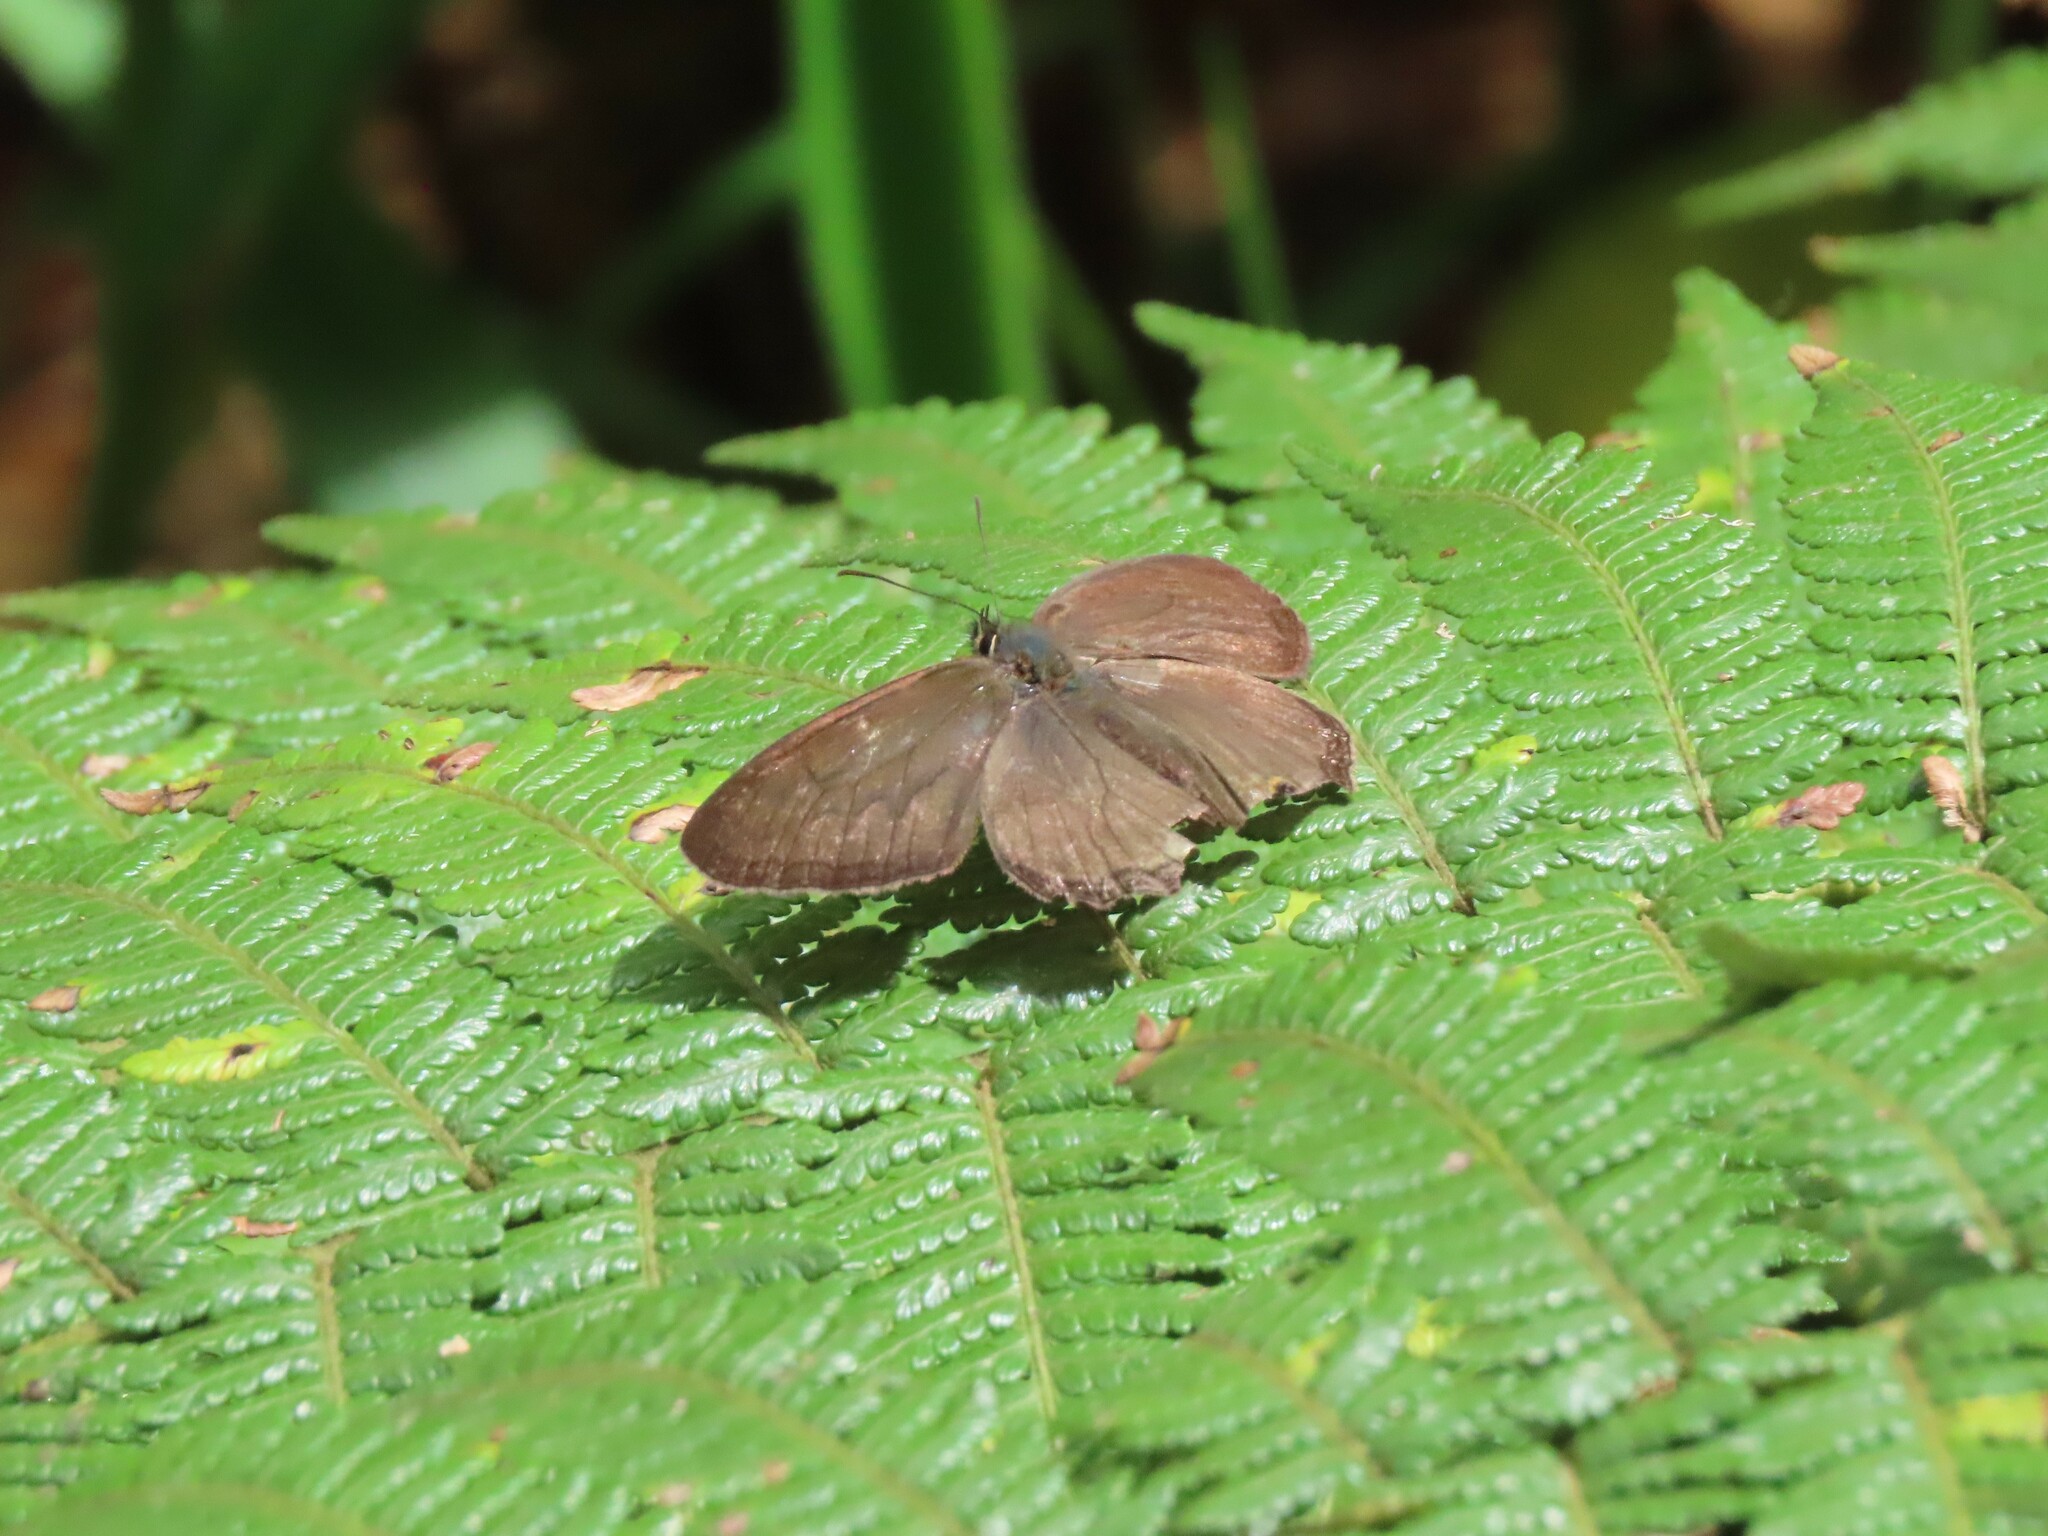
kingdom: Animalia
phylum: Arthropoda
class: Insecta
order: Lepidoptera
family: Nymphalidae
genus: Graphita
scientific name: Graphita griphe
